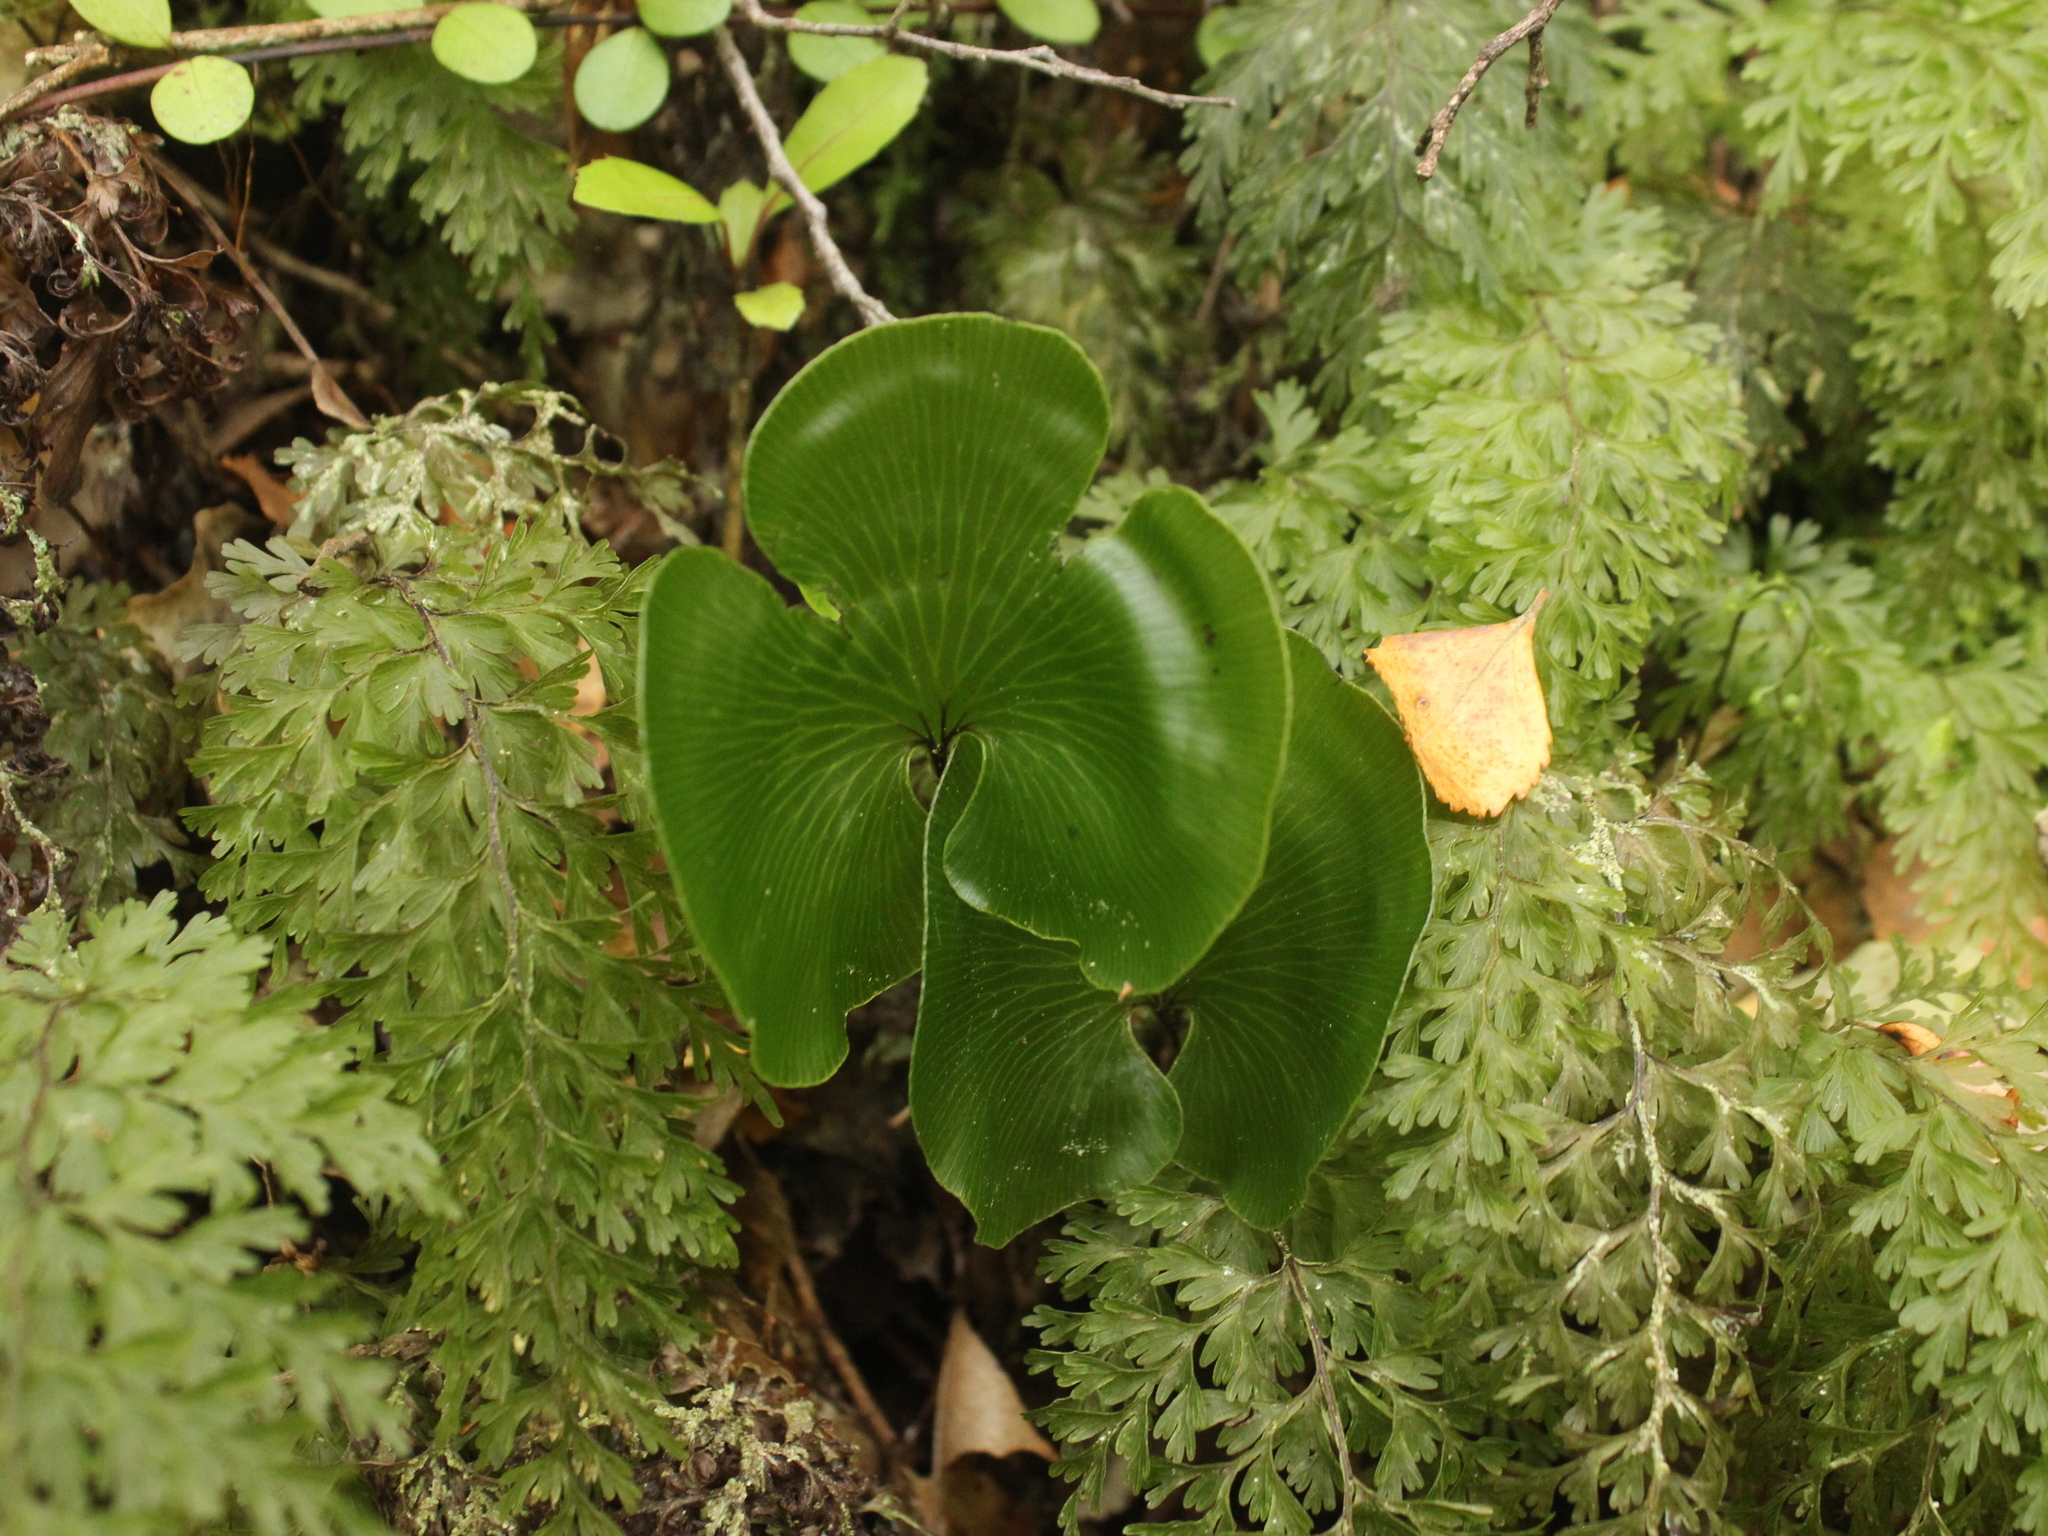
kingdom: Plantae
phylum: Tracheophyta
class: Polypodiopsida
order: Hymenophyllales
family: Hymenophyllaceae
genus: Hymenophyllum
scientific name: Hymenophyllum nephrophyllum
